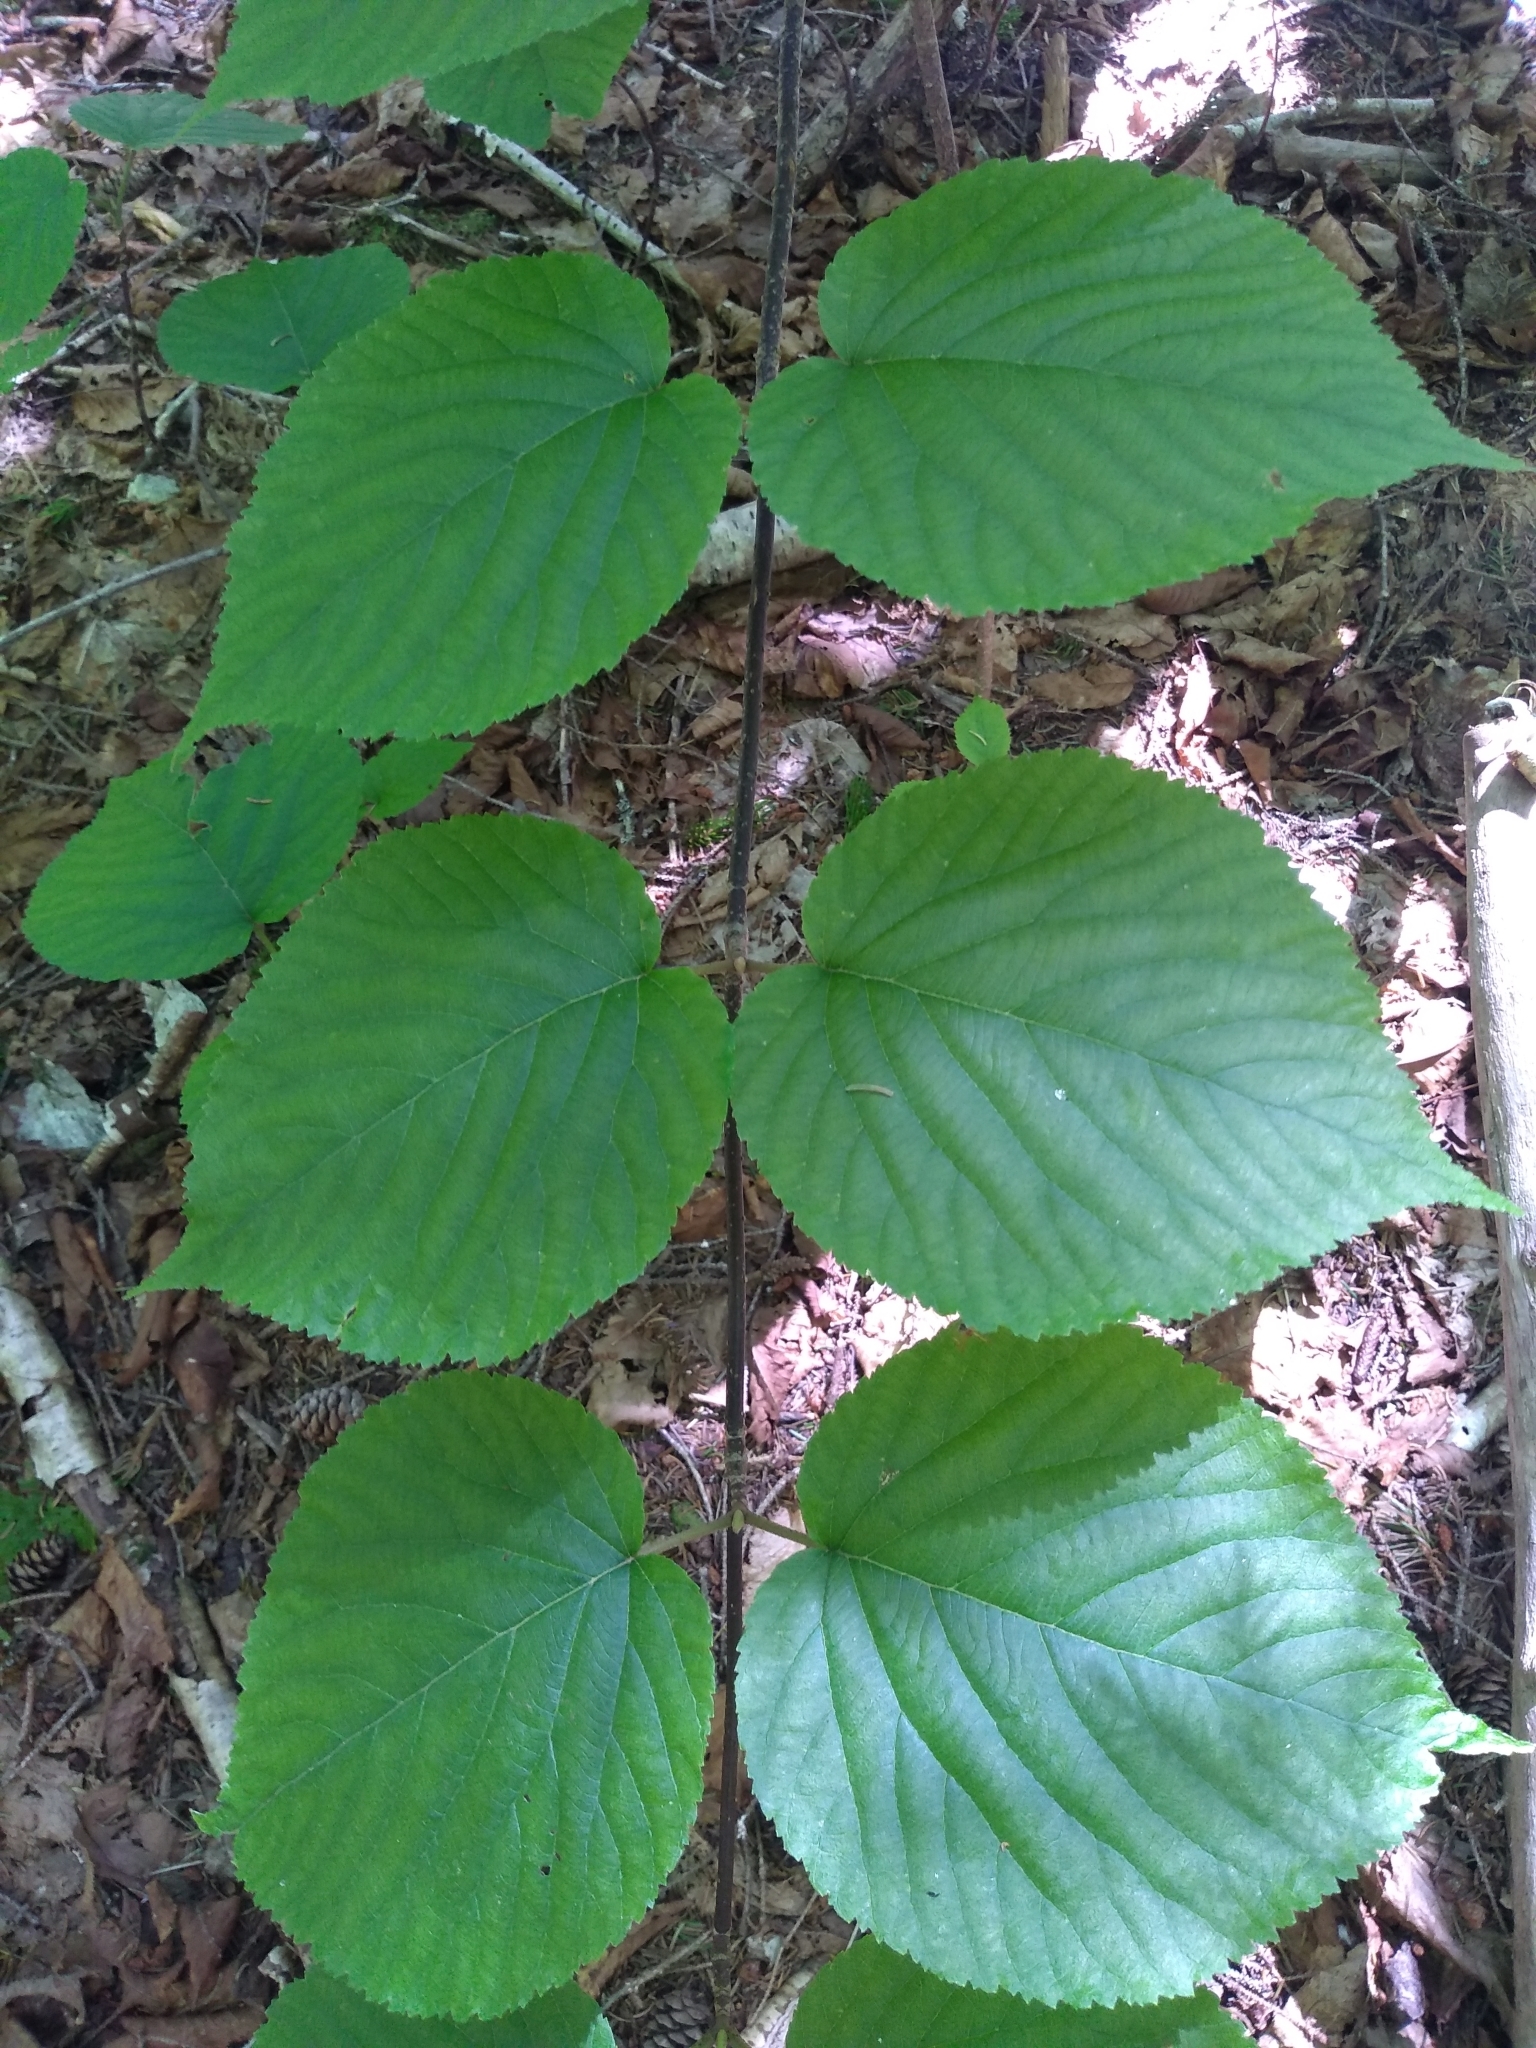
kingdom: Plantae
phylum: Tracheophyta
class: Magnoliopsida
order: Dipsacales
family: Viburnaceae
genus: Viburnum
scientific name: Viburnum lantanoides
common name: Hobblebush
